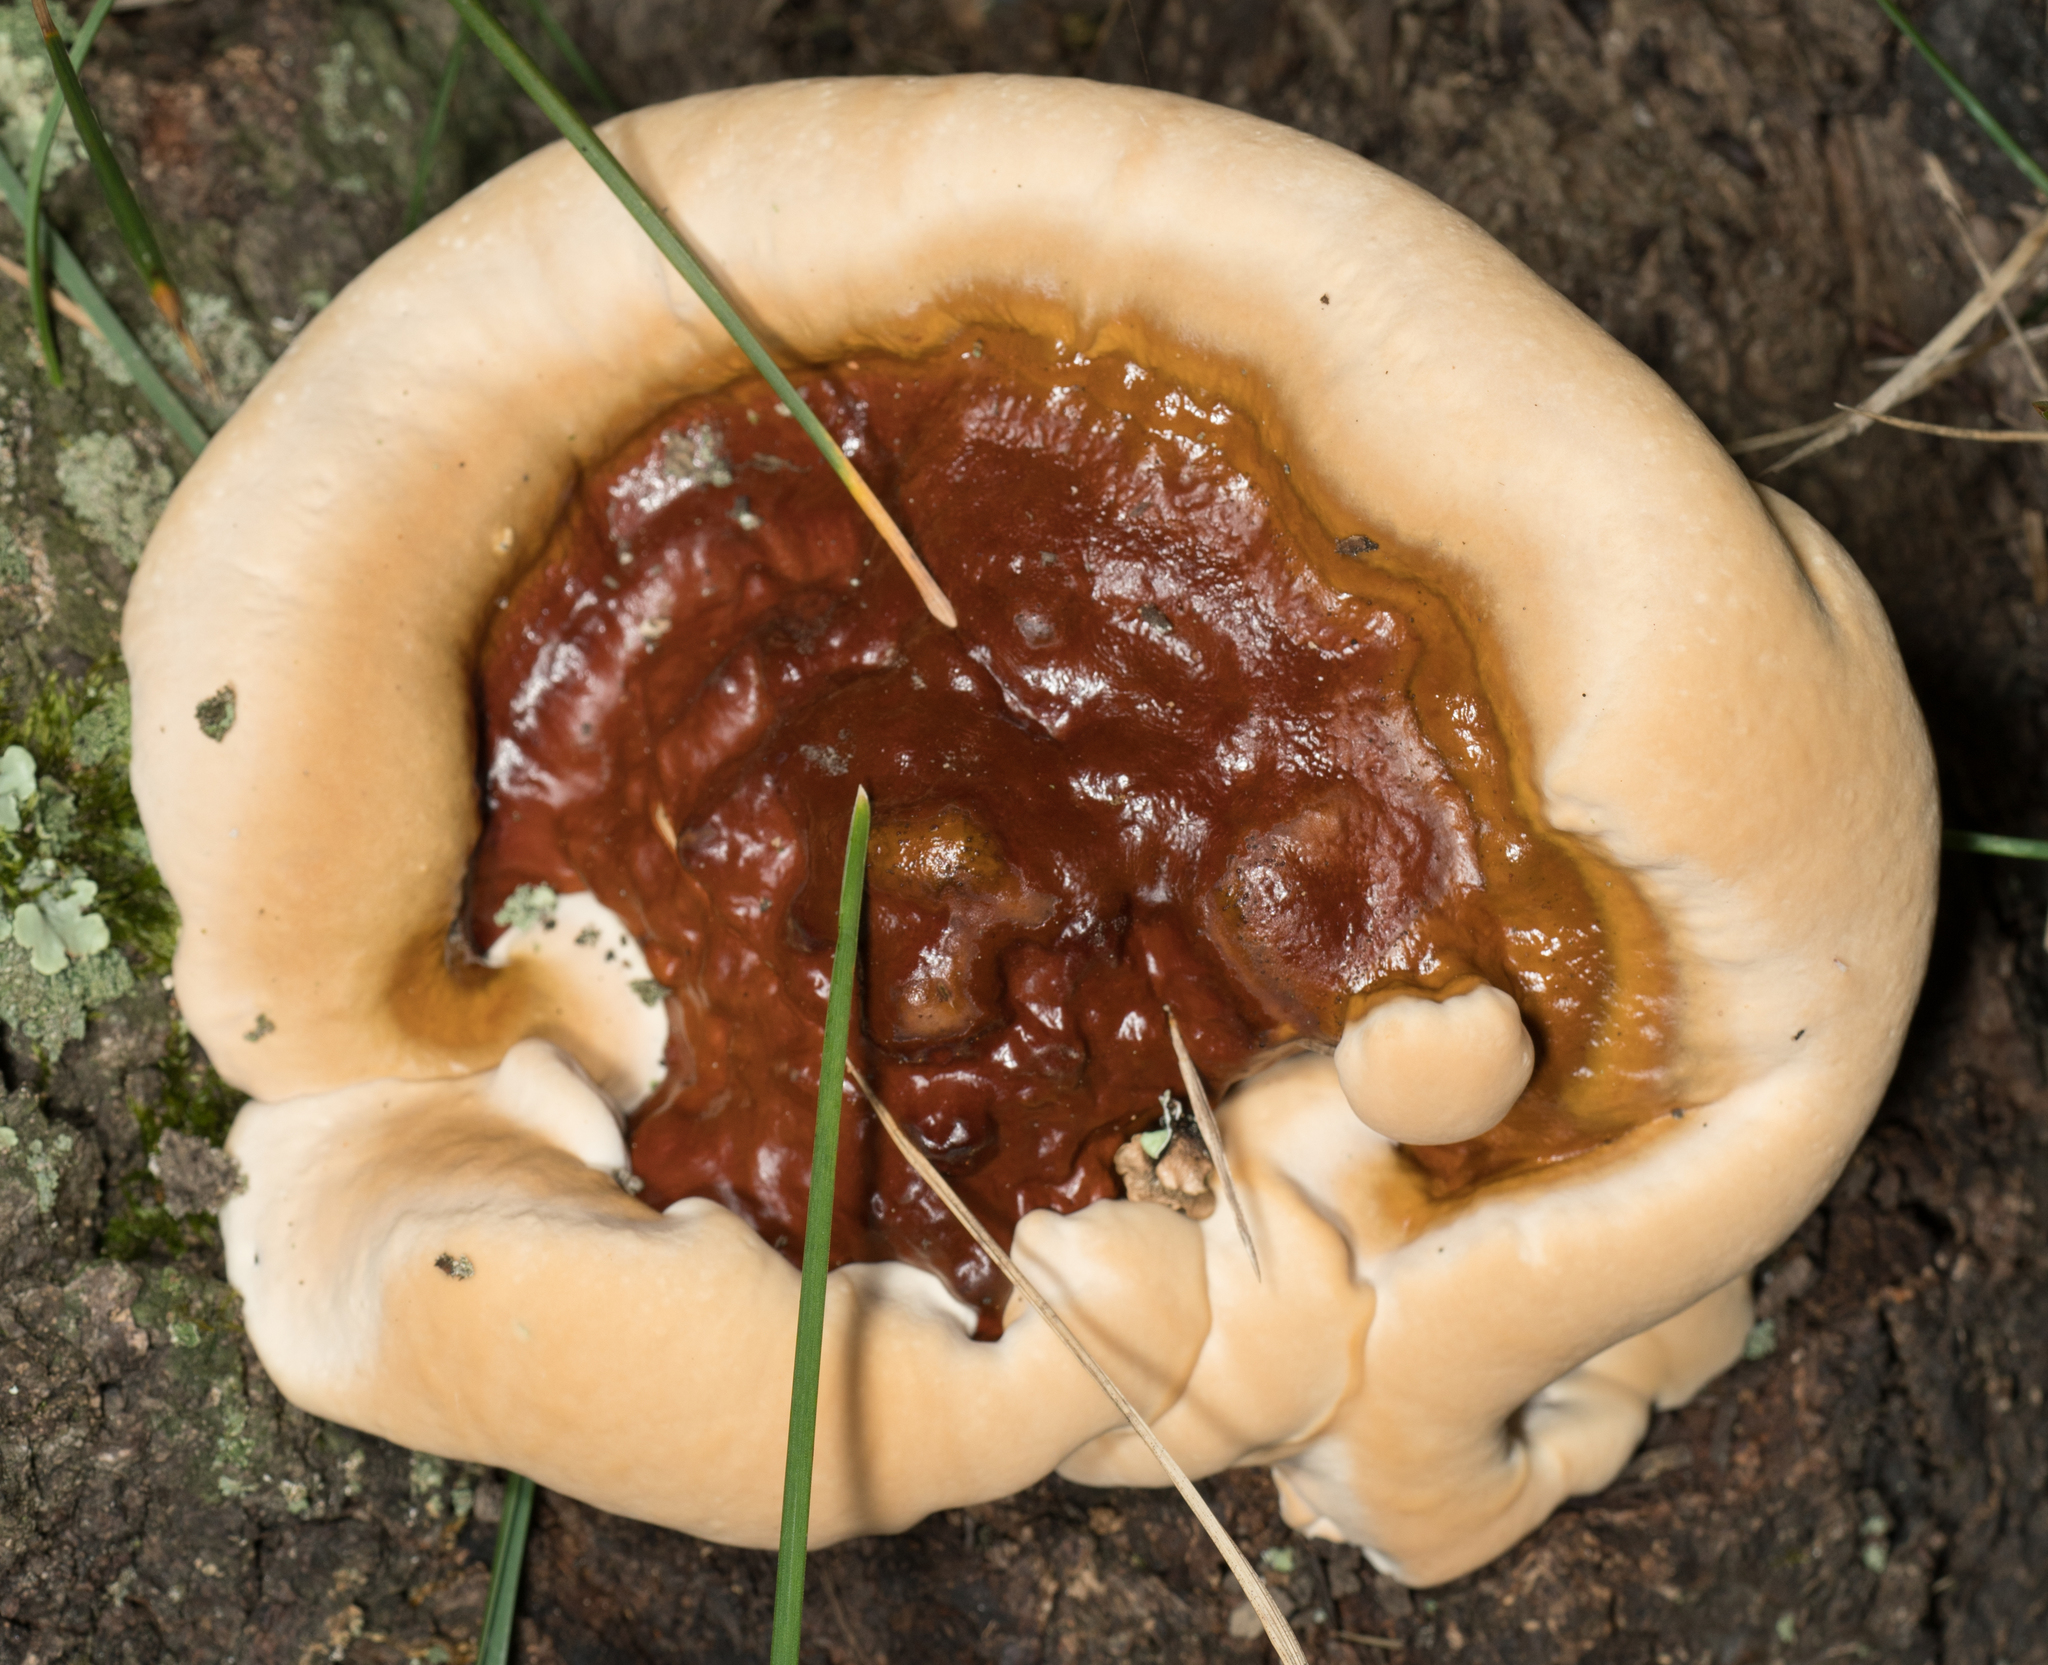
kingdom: Fungi
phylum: Basidiomycota
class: Agaricomycetes
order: Polyporales
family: Polyporaceae
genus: Ganoderma
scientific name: Ganoderma resinaceum
